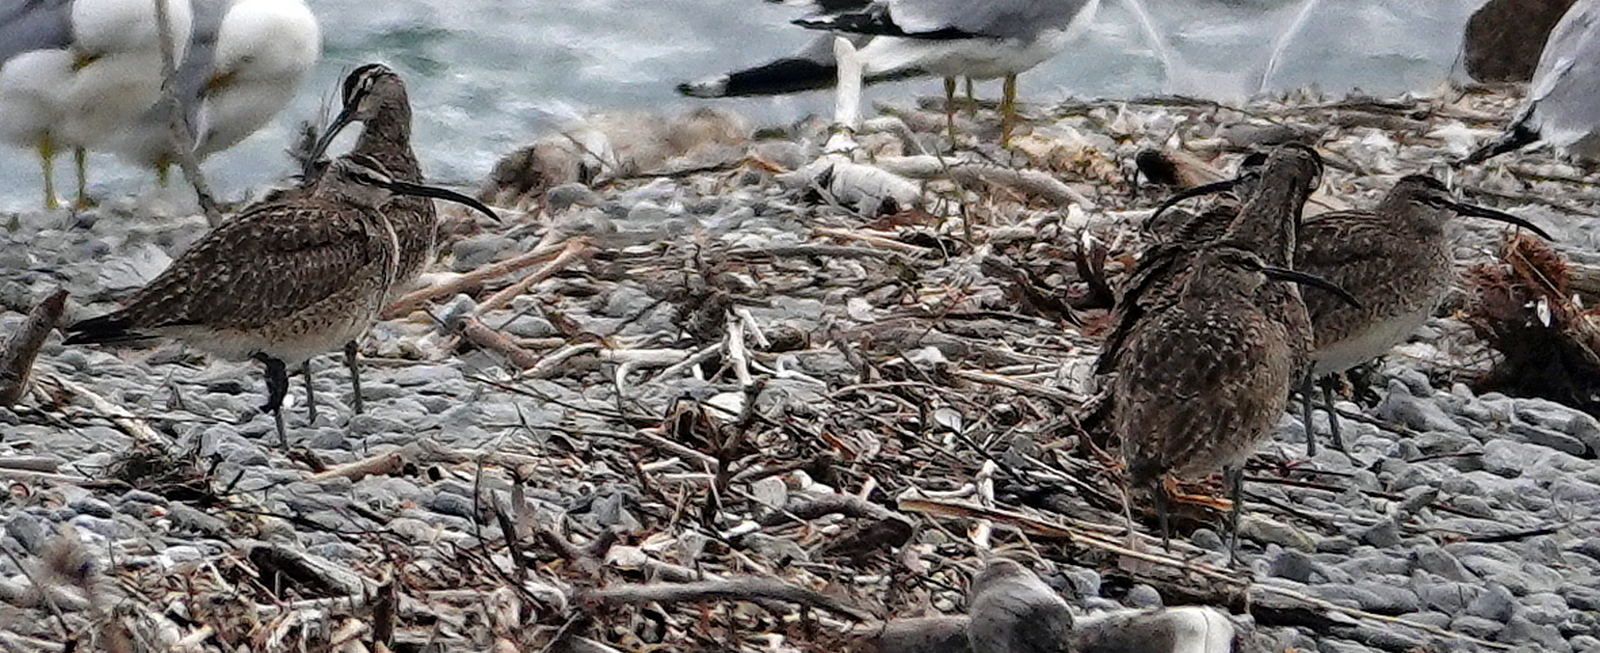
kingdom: Animalia
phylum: Chordata
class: Aves
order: Charadriiformes
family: Scolopacidae
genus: Numenius
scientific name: Numenius phaeopus
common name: Whimbrel
